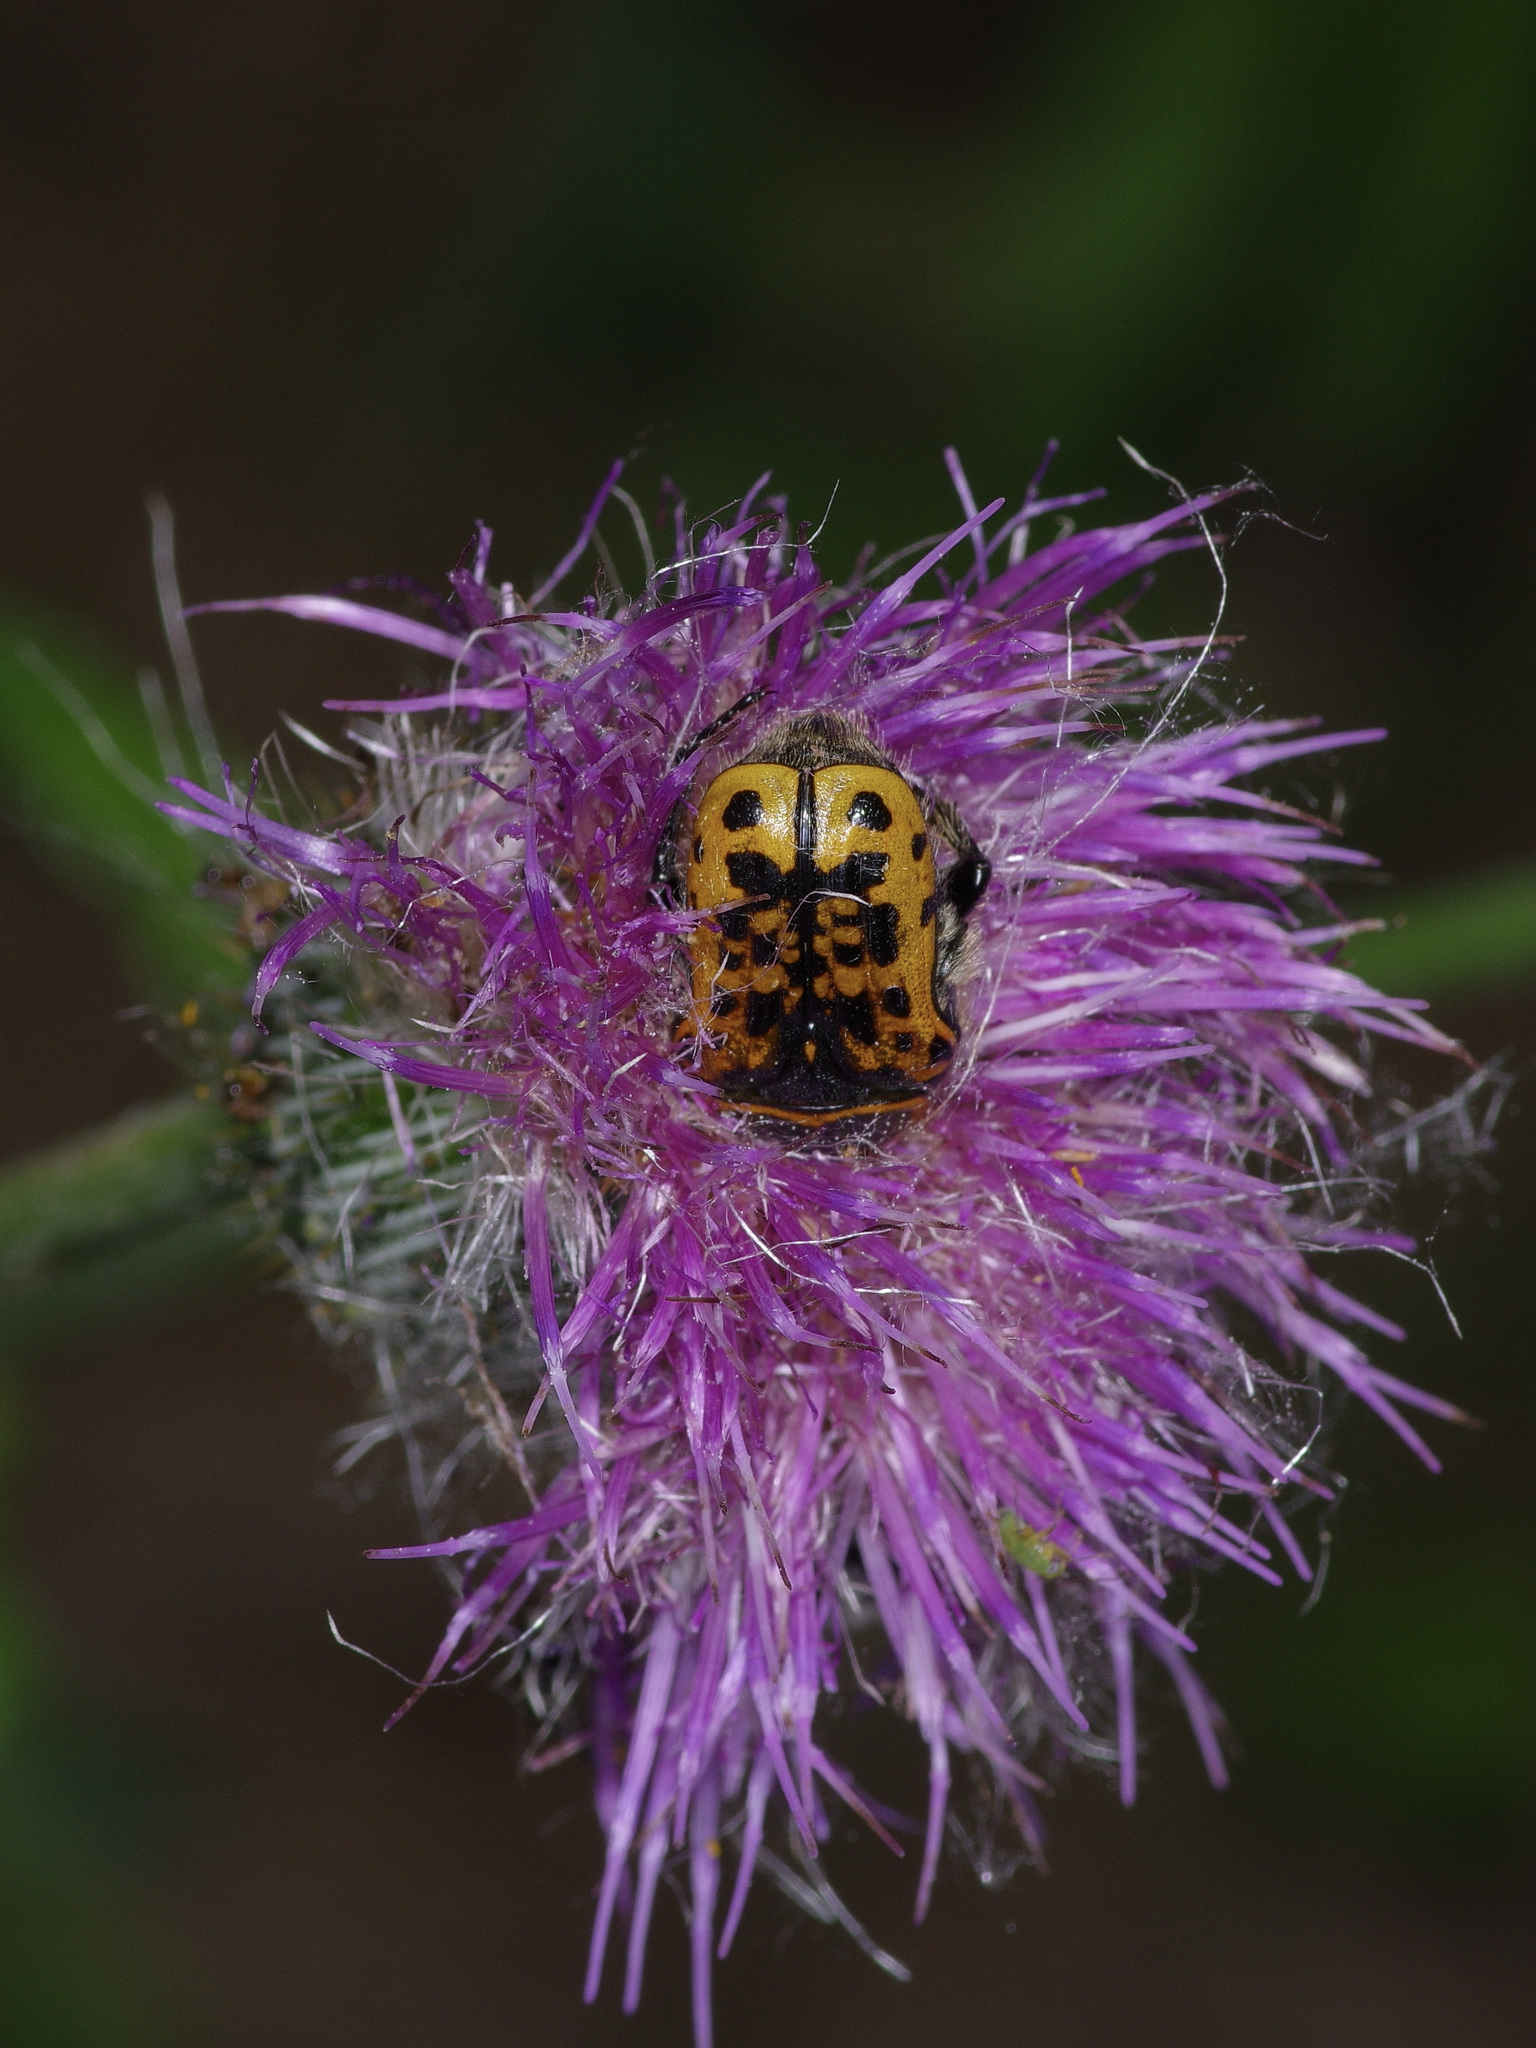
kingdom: Animalia
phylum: Arthropoda
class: Insecta
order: Coleoptera
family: Scarabaeidae
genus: Euphoria
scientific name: Euphoria kernii
